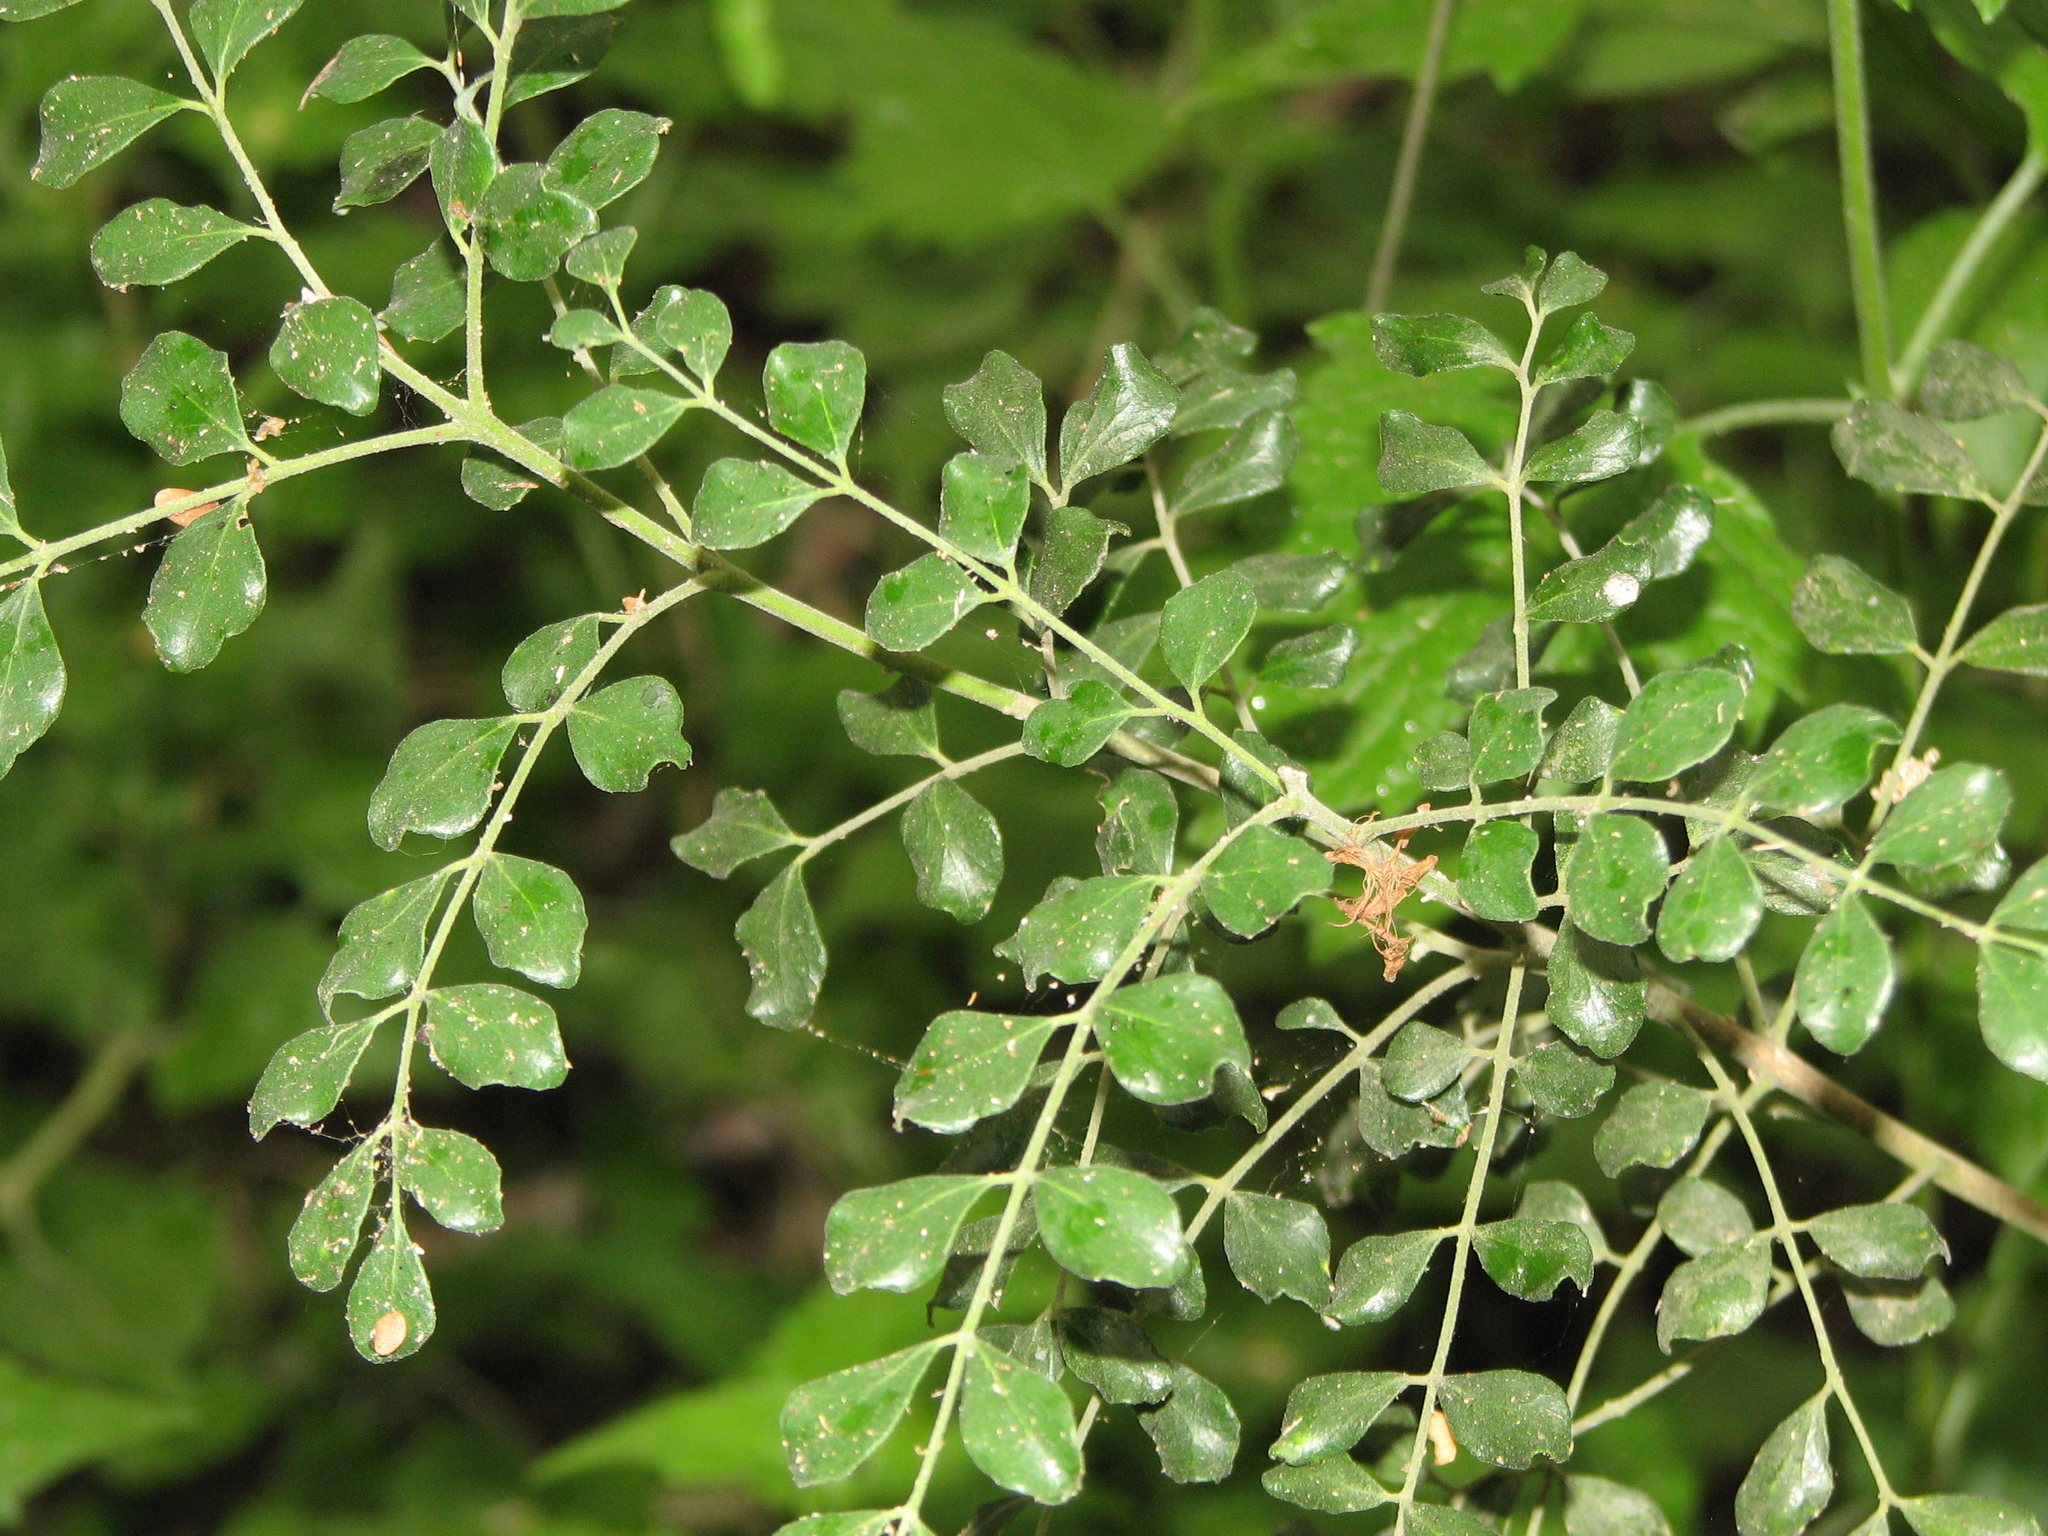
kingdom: Plantae
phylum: Tracheophyta
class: Magnoliopsida
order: Sapindales
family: Rutaceae
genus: Amyris
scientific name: Amyris madrensis
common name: Mountain torchwood
